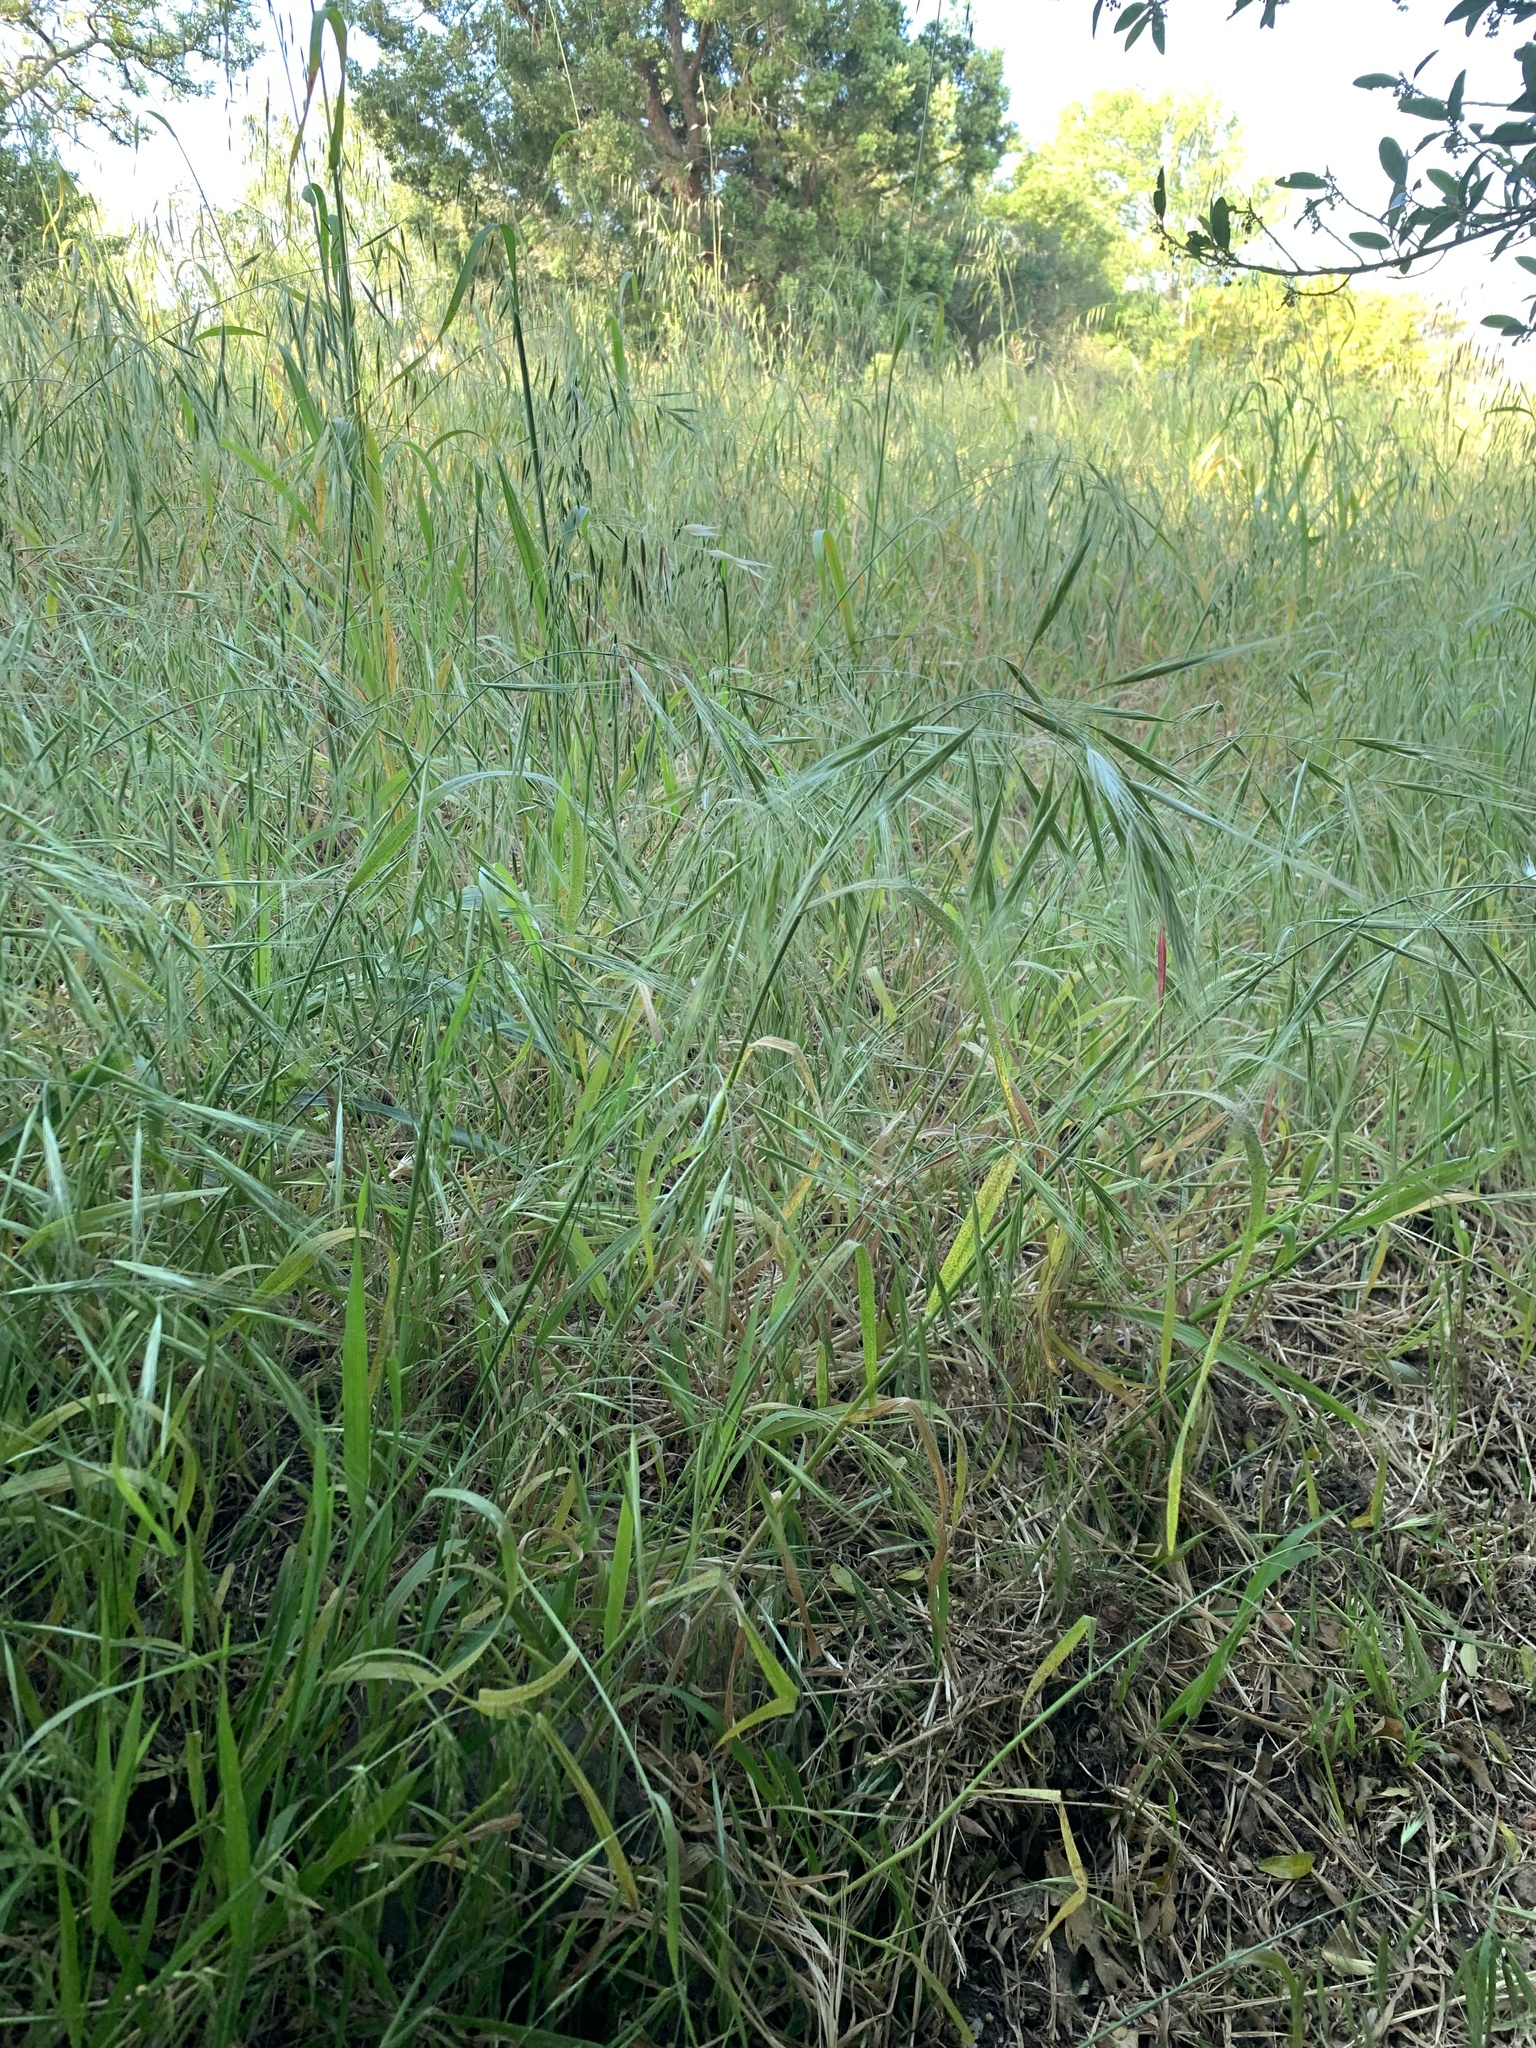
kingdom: Plantae
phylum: Tracheophyta
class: Liliopsida
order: Poales
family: Poaceae
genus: Bromus
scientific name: Bromus diandrus
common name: Ripgut brome
